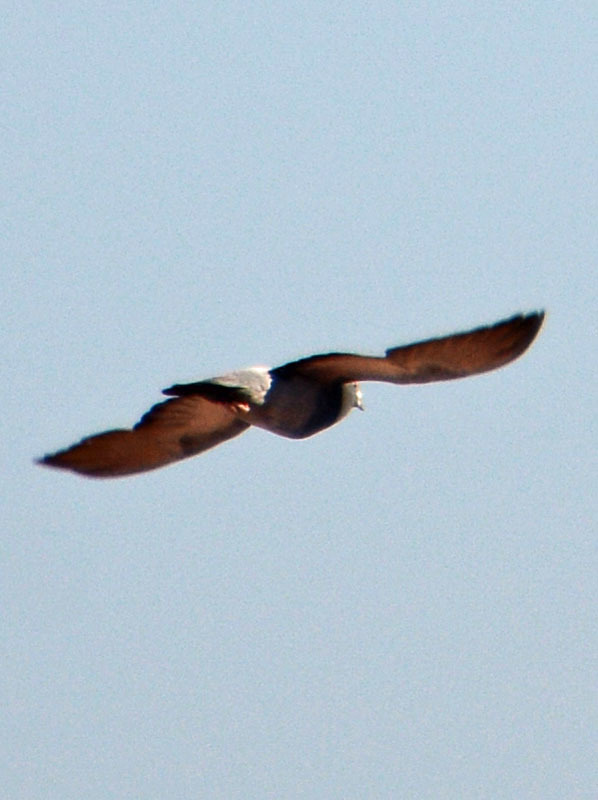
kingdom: Animalia
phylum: Chordata
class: Aves
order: Columbiformes
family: Columbidae
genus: Columba
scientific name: Columba livia
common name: Rock pigeon
